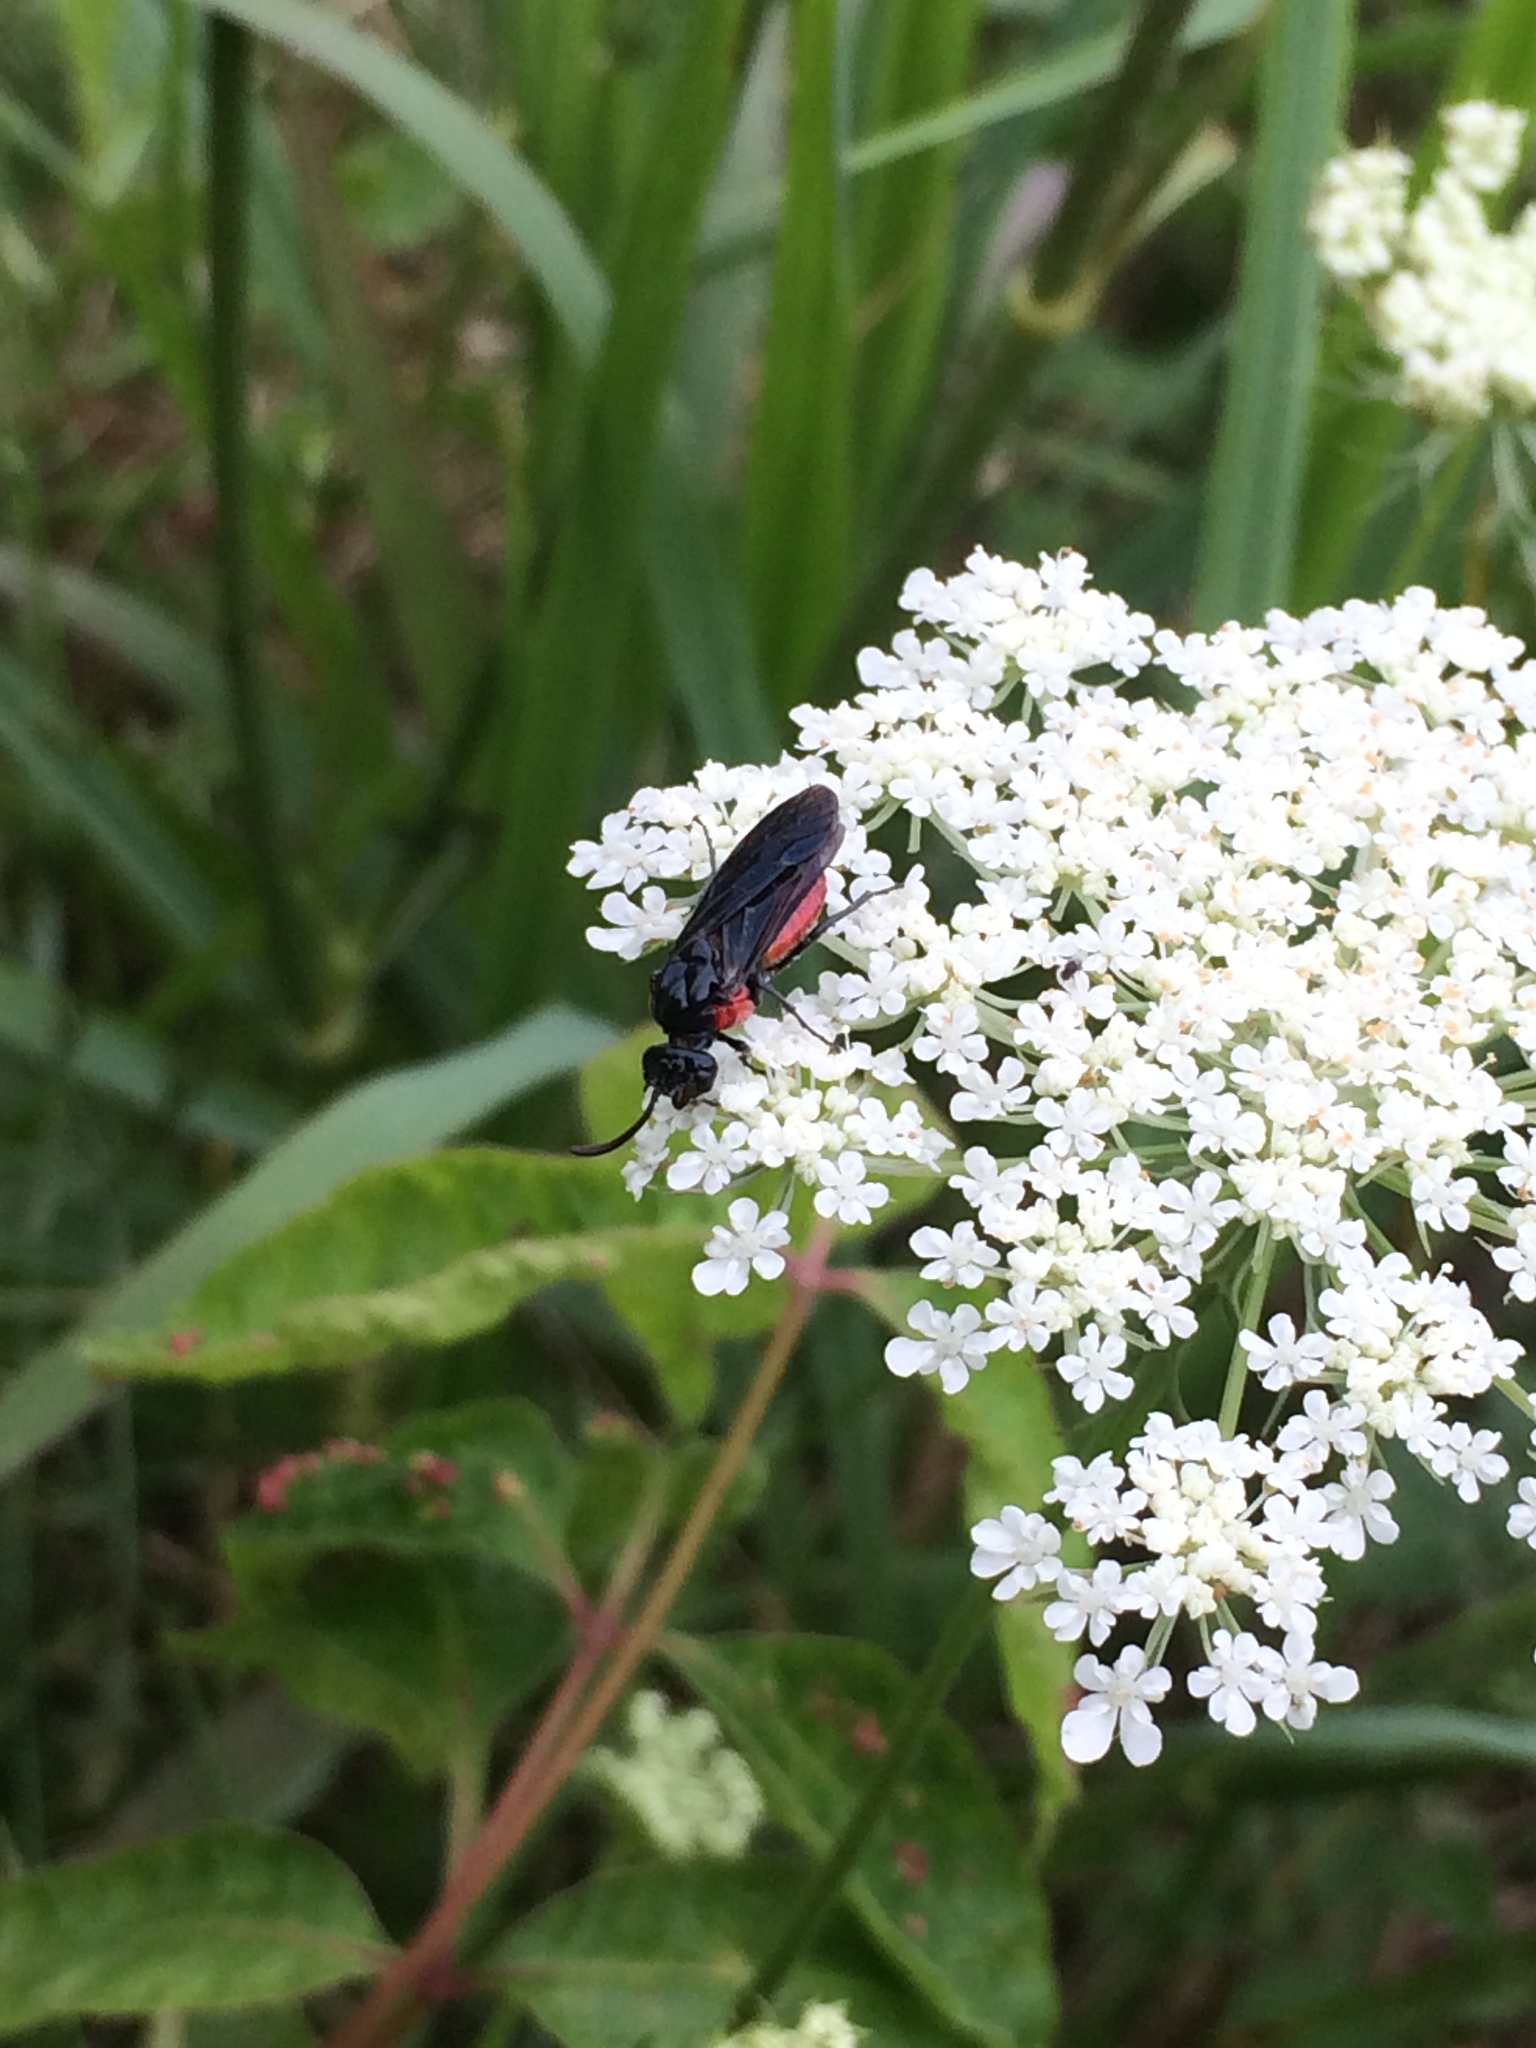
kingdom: Animalia
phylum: Arthropoda
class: Insecta
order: Hymenoptera
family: Argidae
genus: Arge
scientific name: Arge humeralis
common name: Poison ivy sawfly
